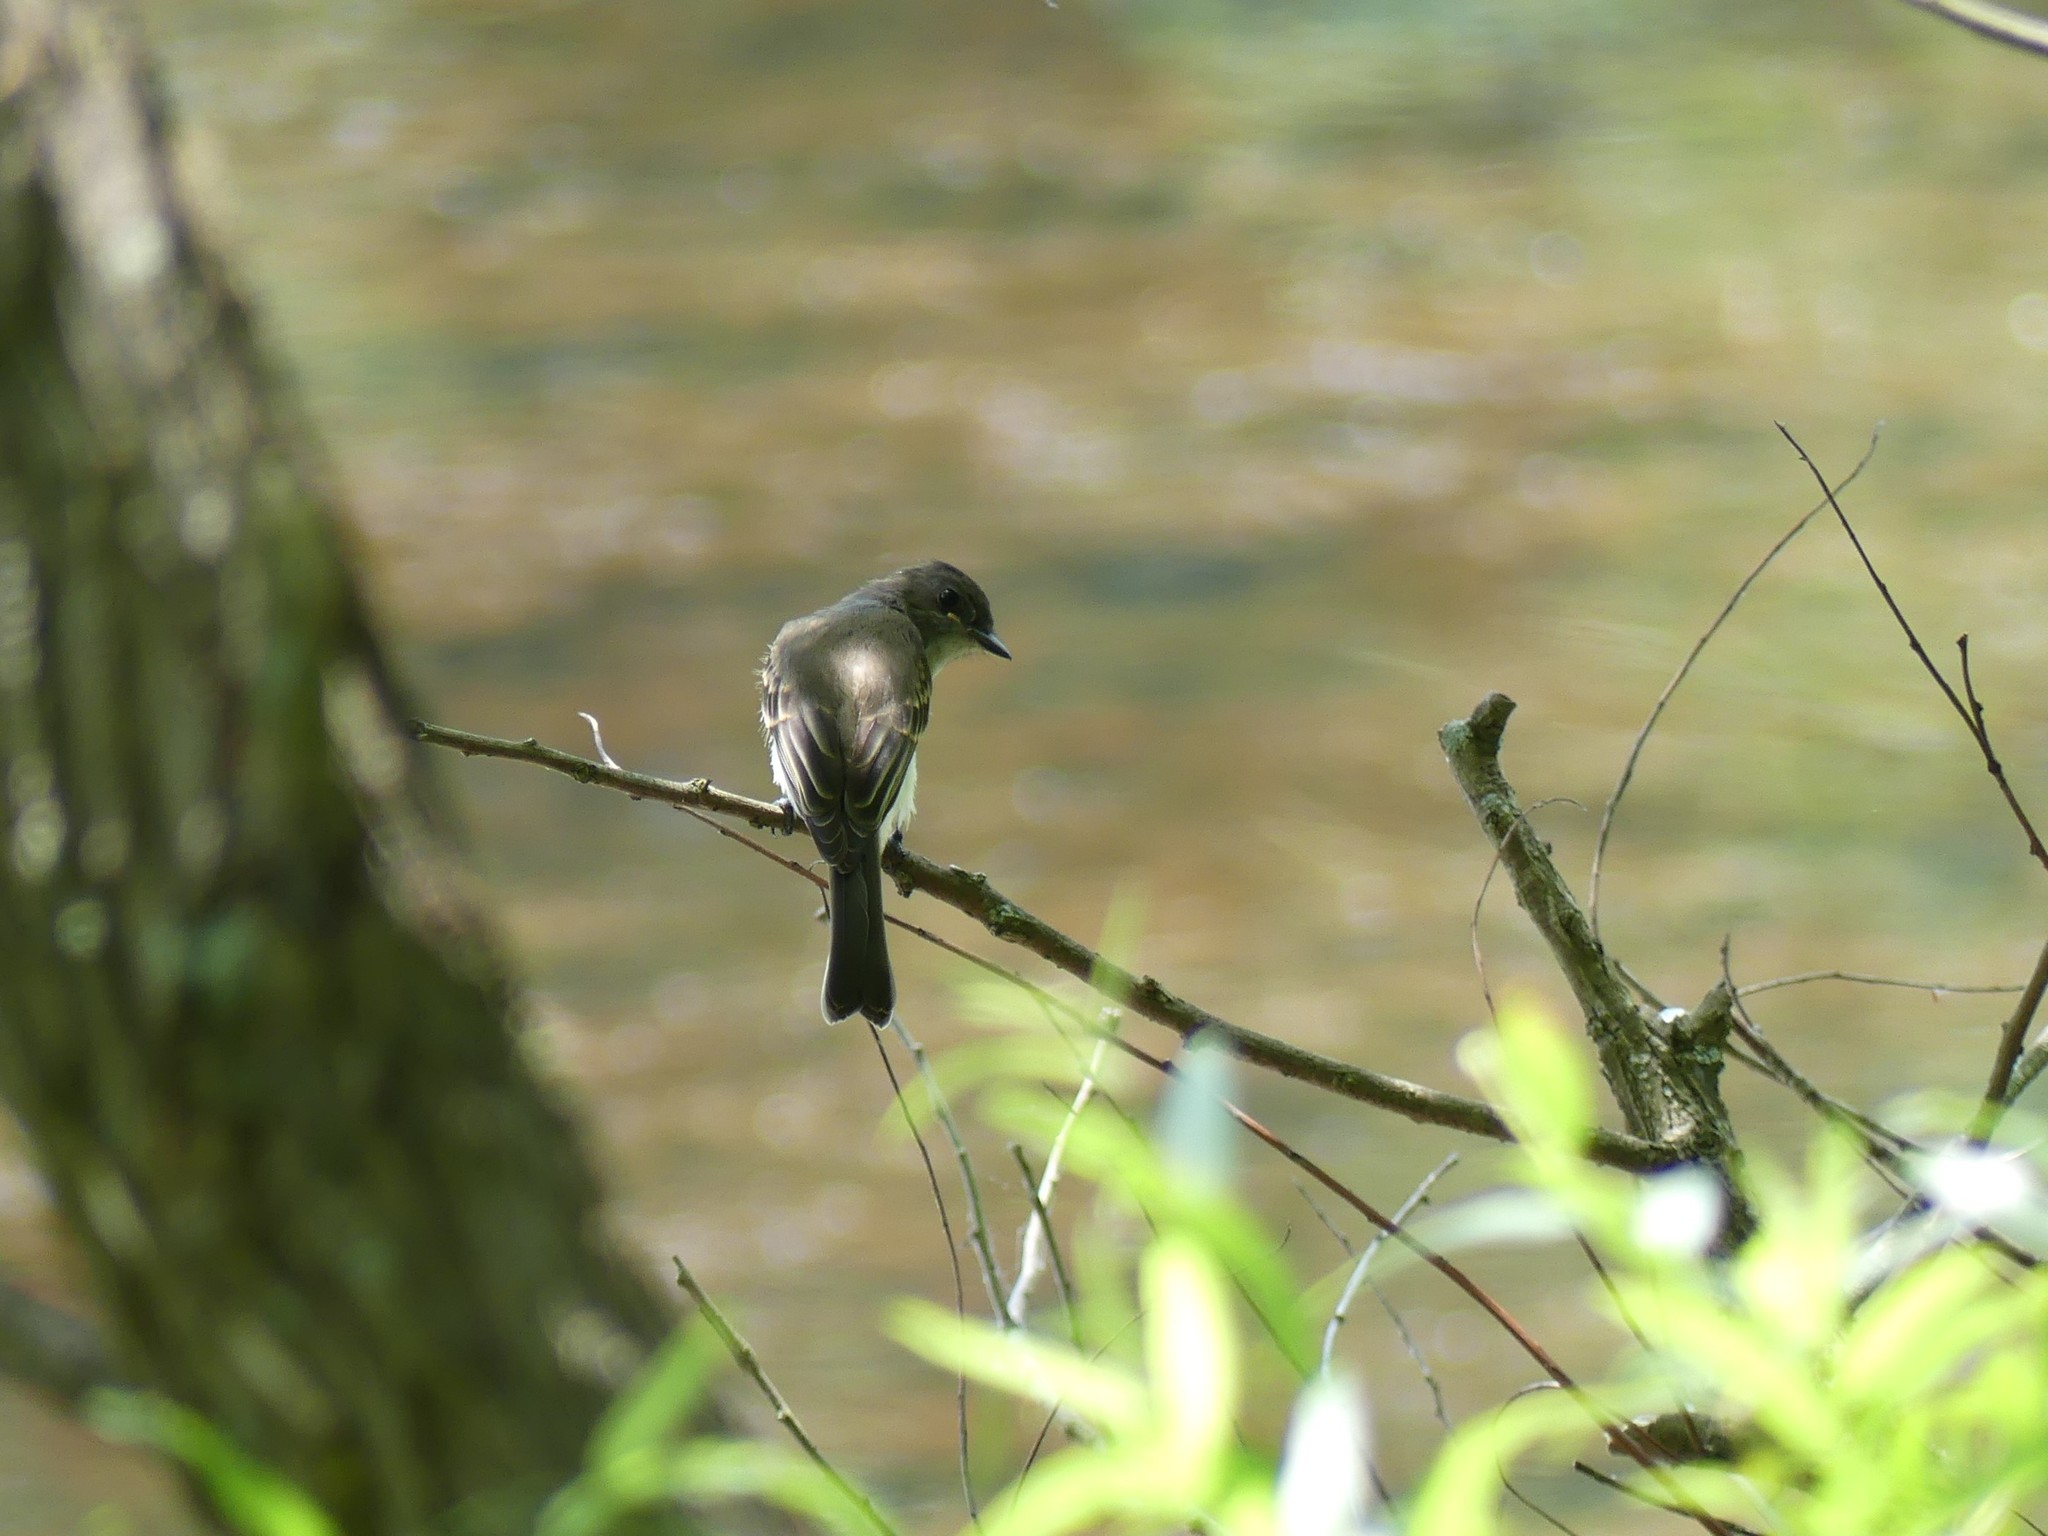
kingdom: Animalia
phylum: Chordata
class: Aves
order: Passeriformes
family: Tyrannidae
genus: Sayornis
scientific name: Sayornis phoebe
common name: Eastern phoebe
